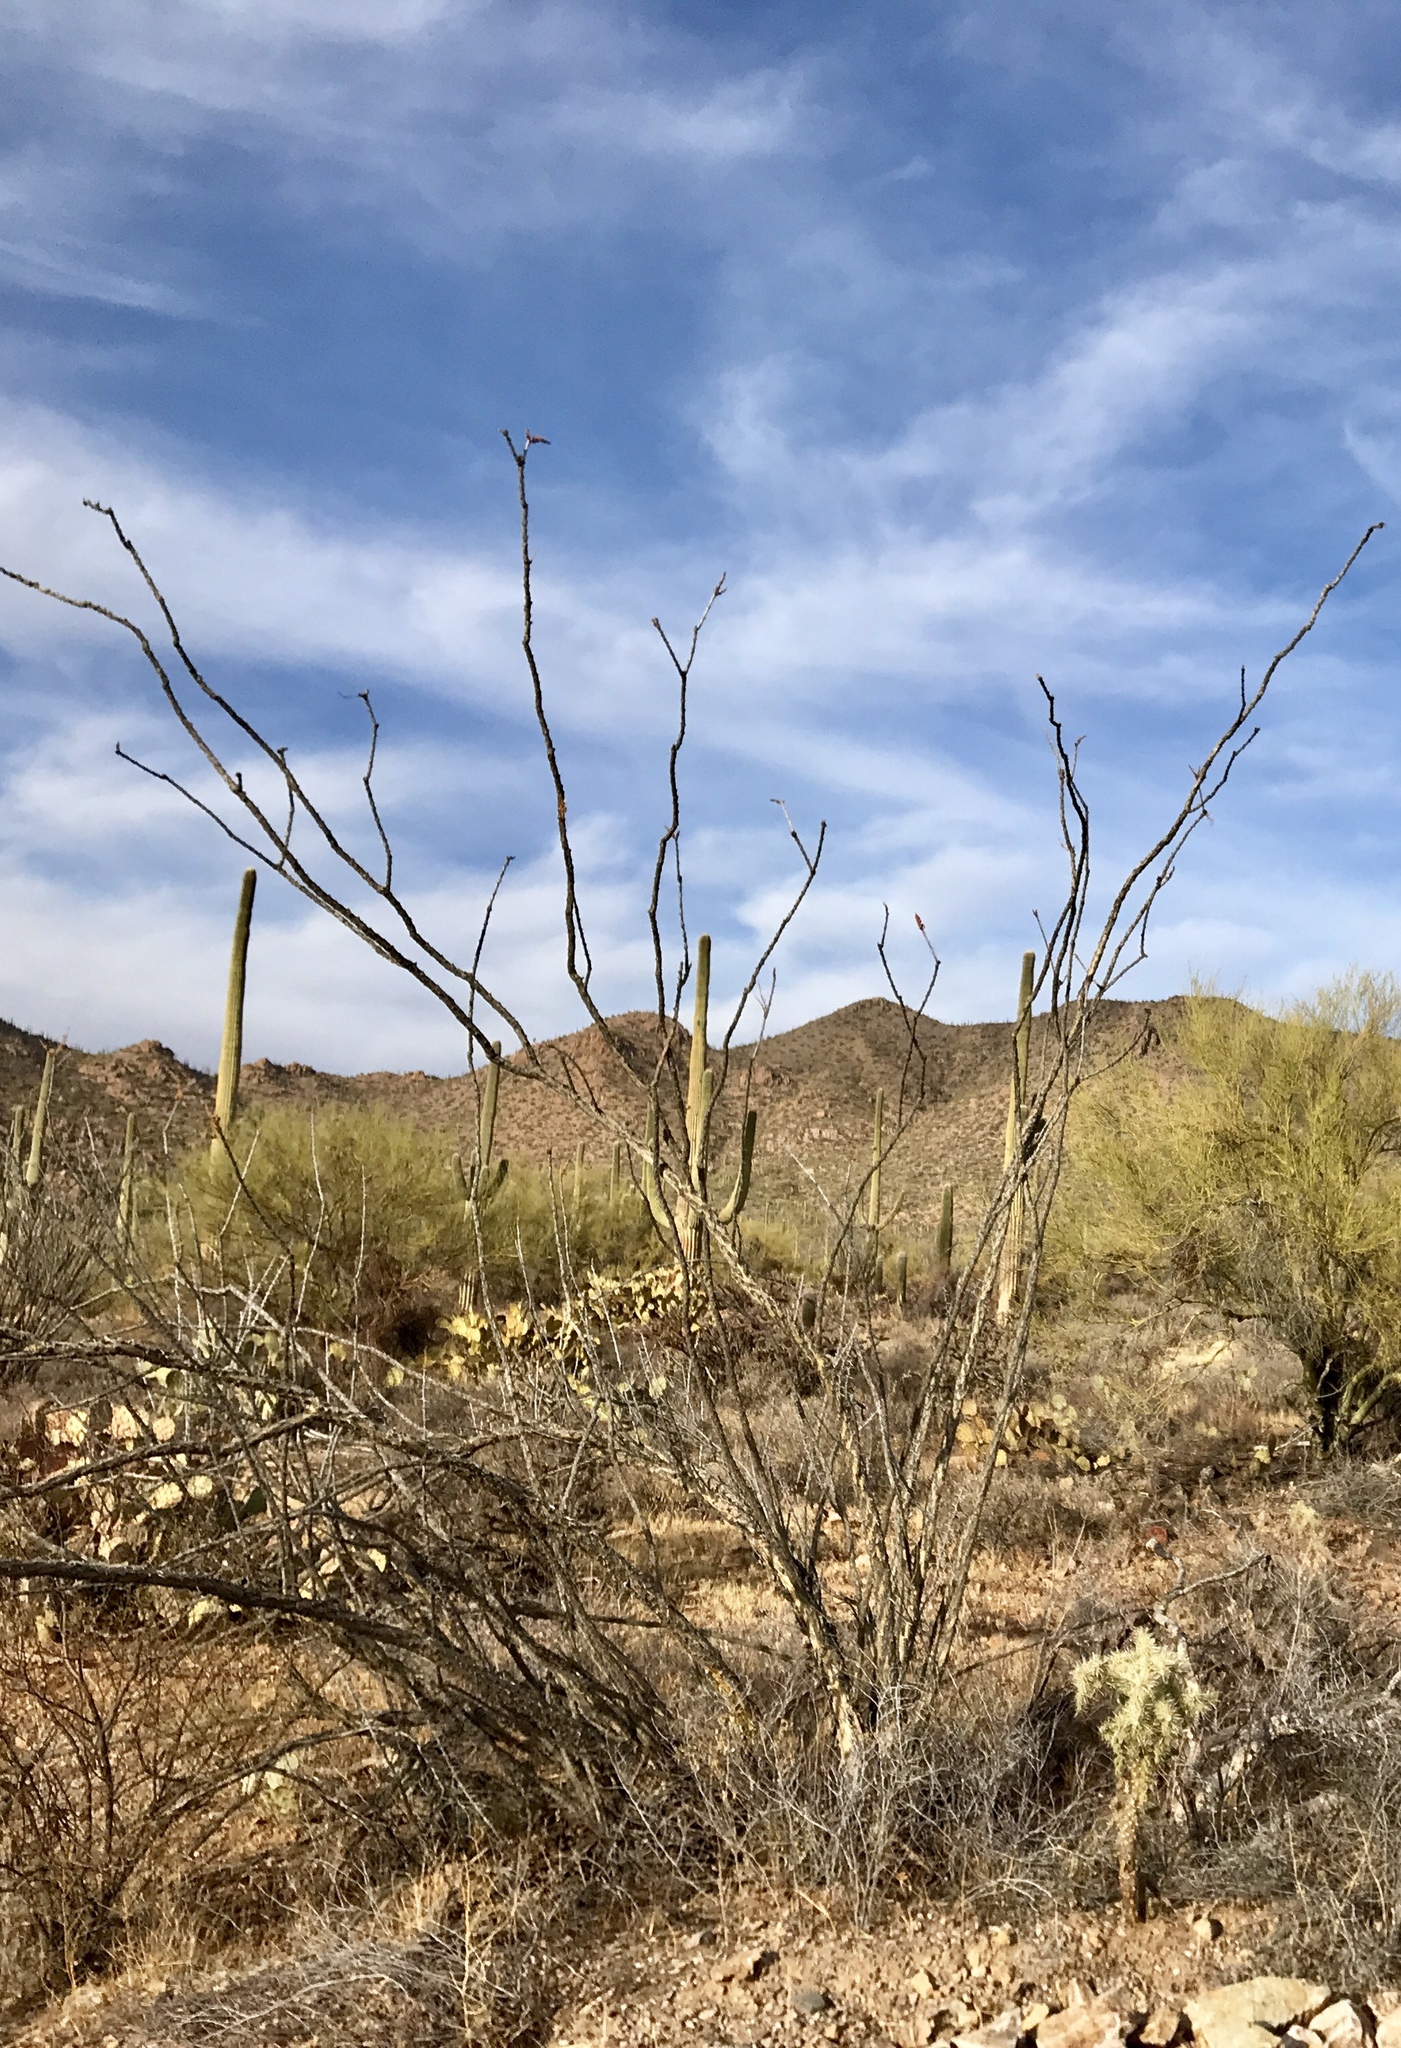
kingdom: Plantae
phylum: Tracheophyta
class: Magnoliopsida
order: Ericales
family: Fouquieriaceae
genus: Fouquieria
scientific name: Fouquieria splendens
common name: Vine-cactus
